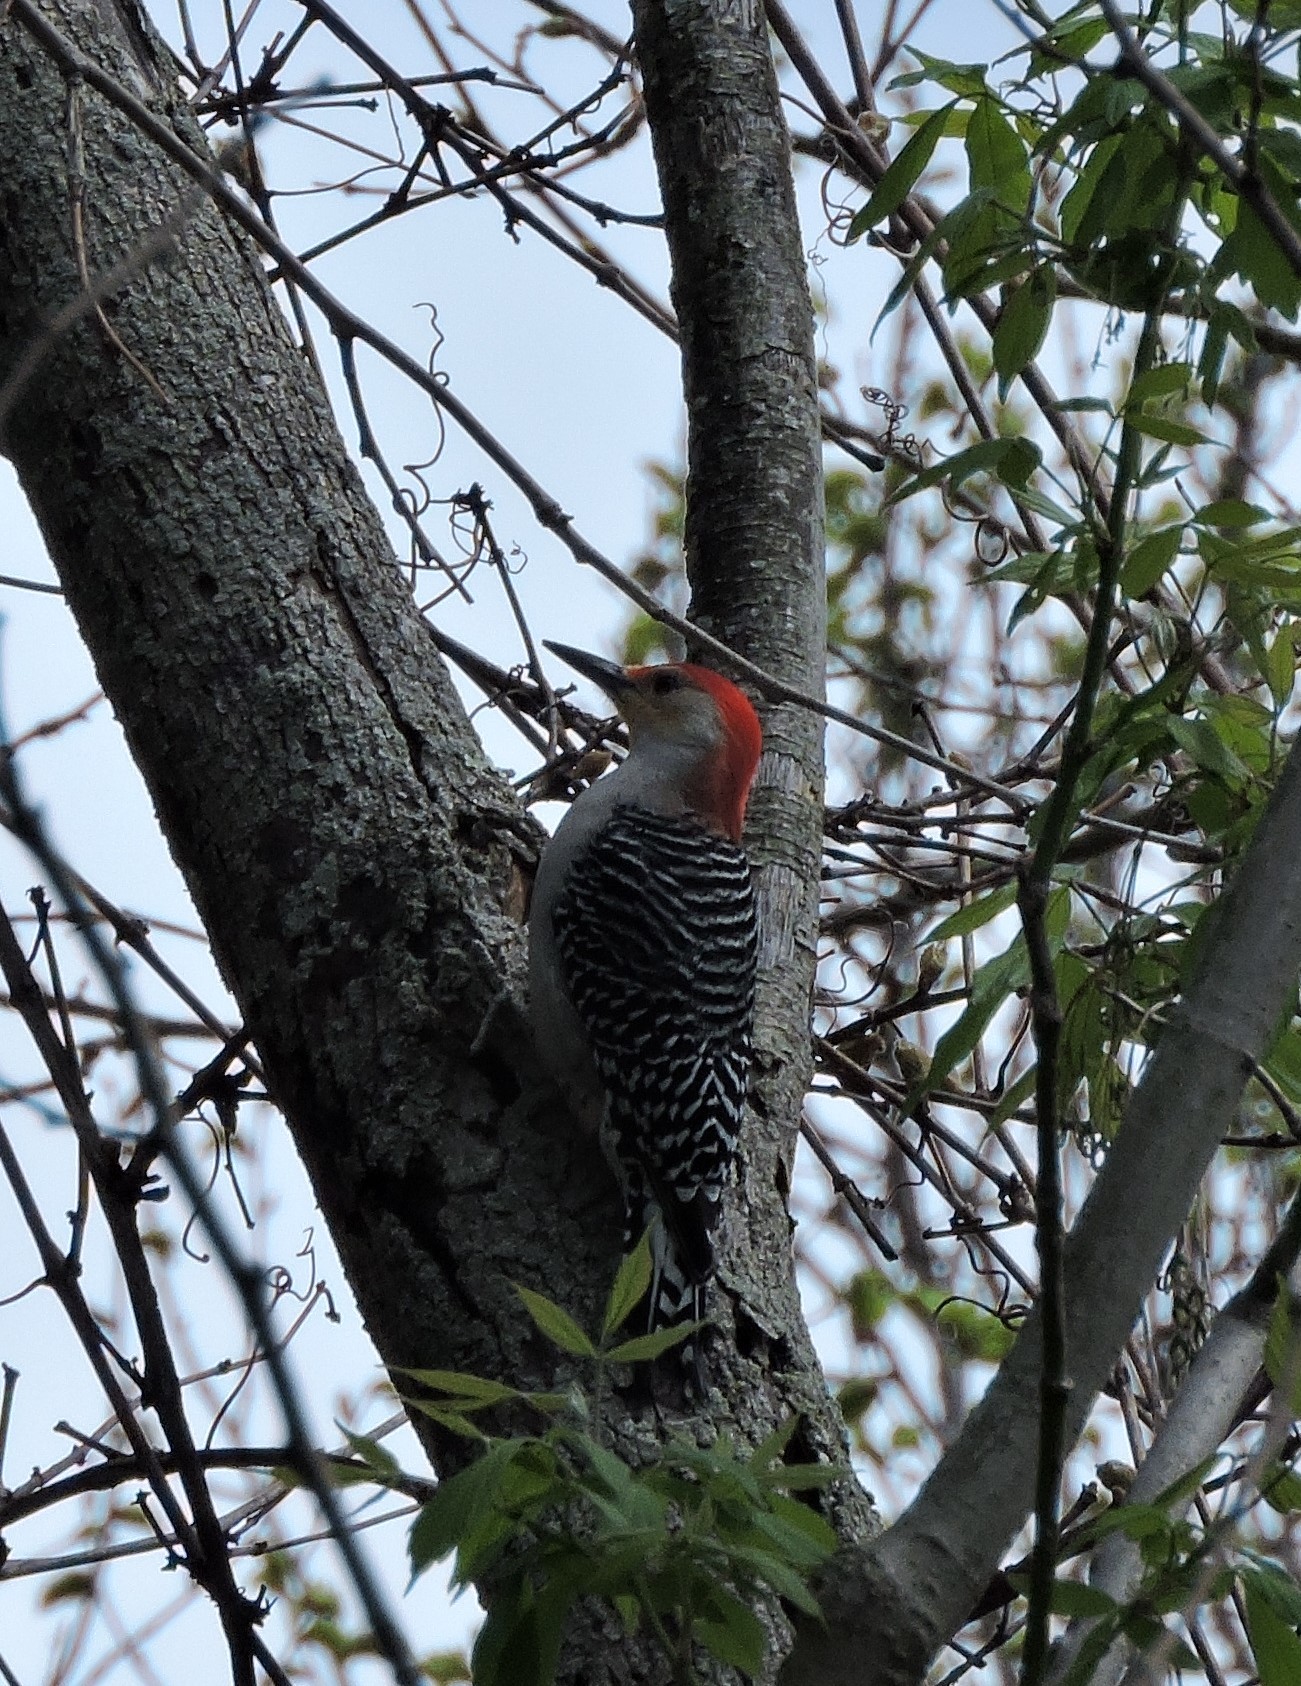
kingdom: Animalia
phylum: Chordata
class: Aves
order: Piciformes
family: Picidae
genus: Melanerpes
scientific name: Melanerpes carolinus
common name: Red-bellied woodpecker
